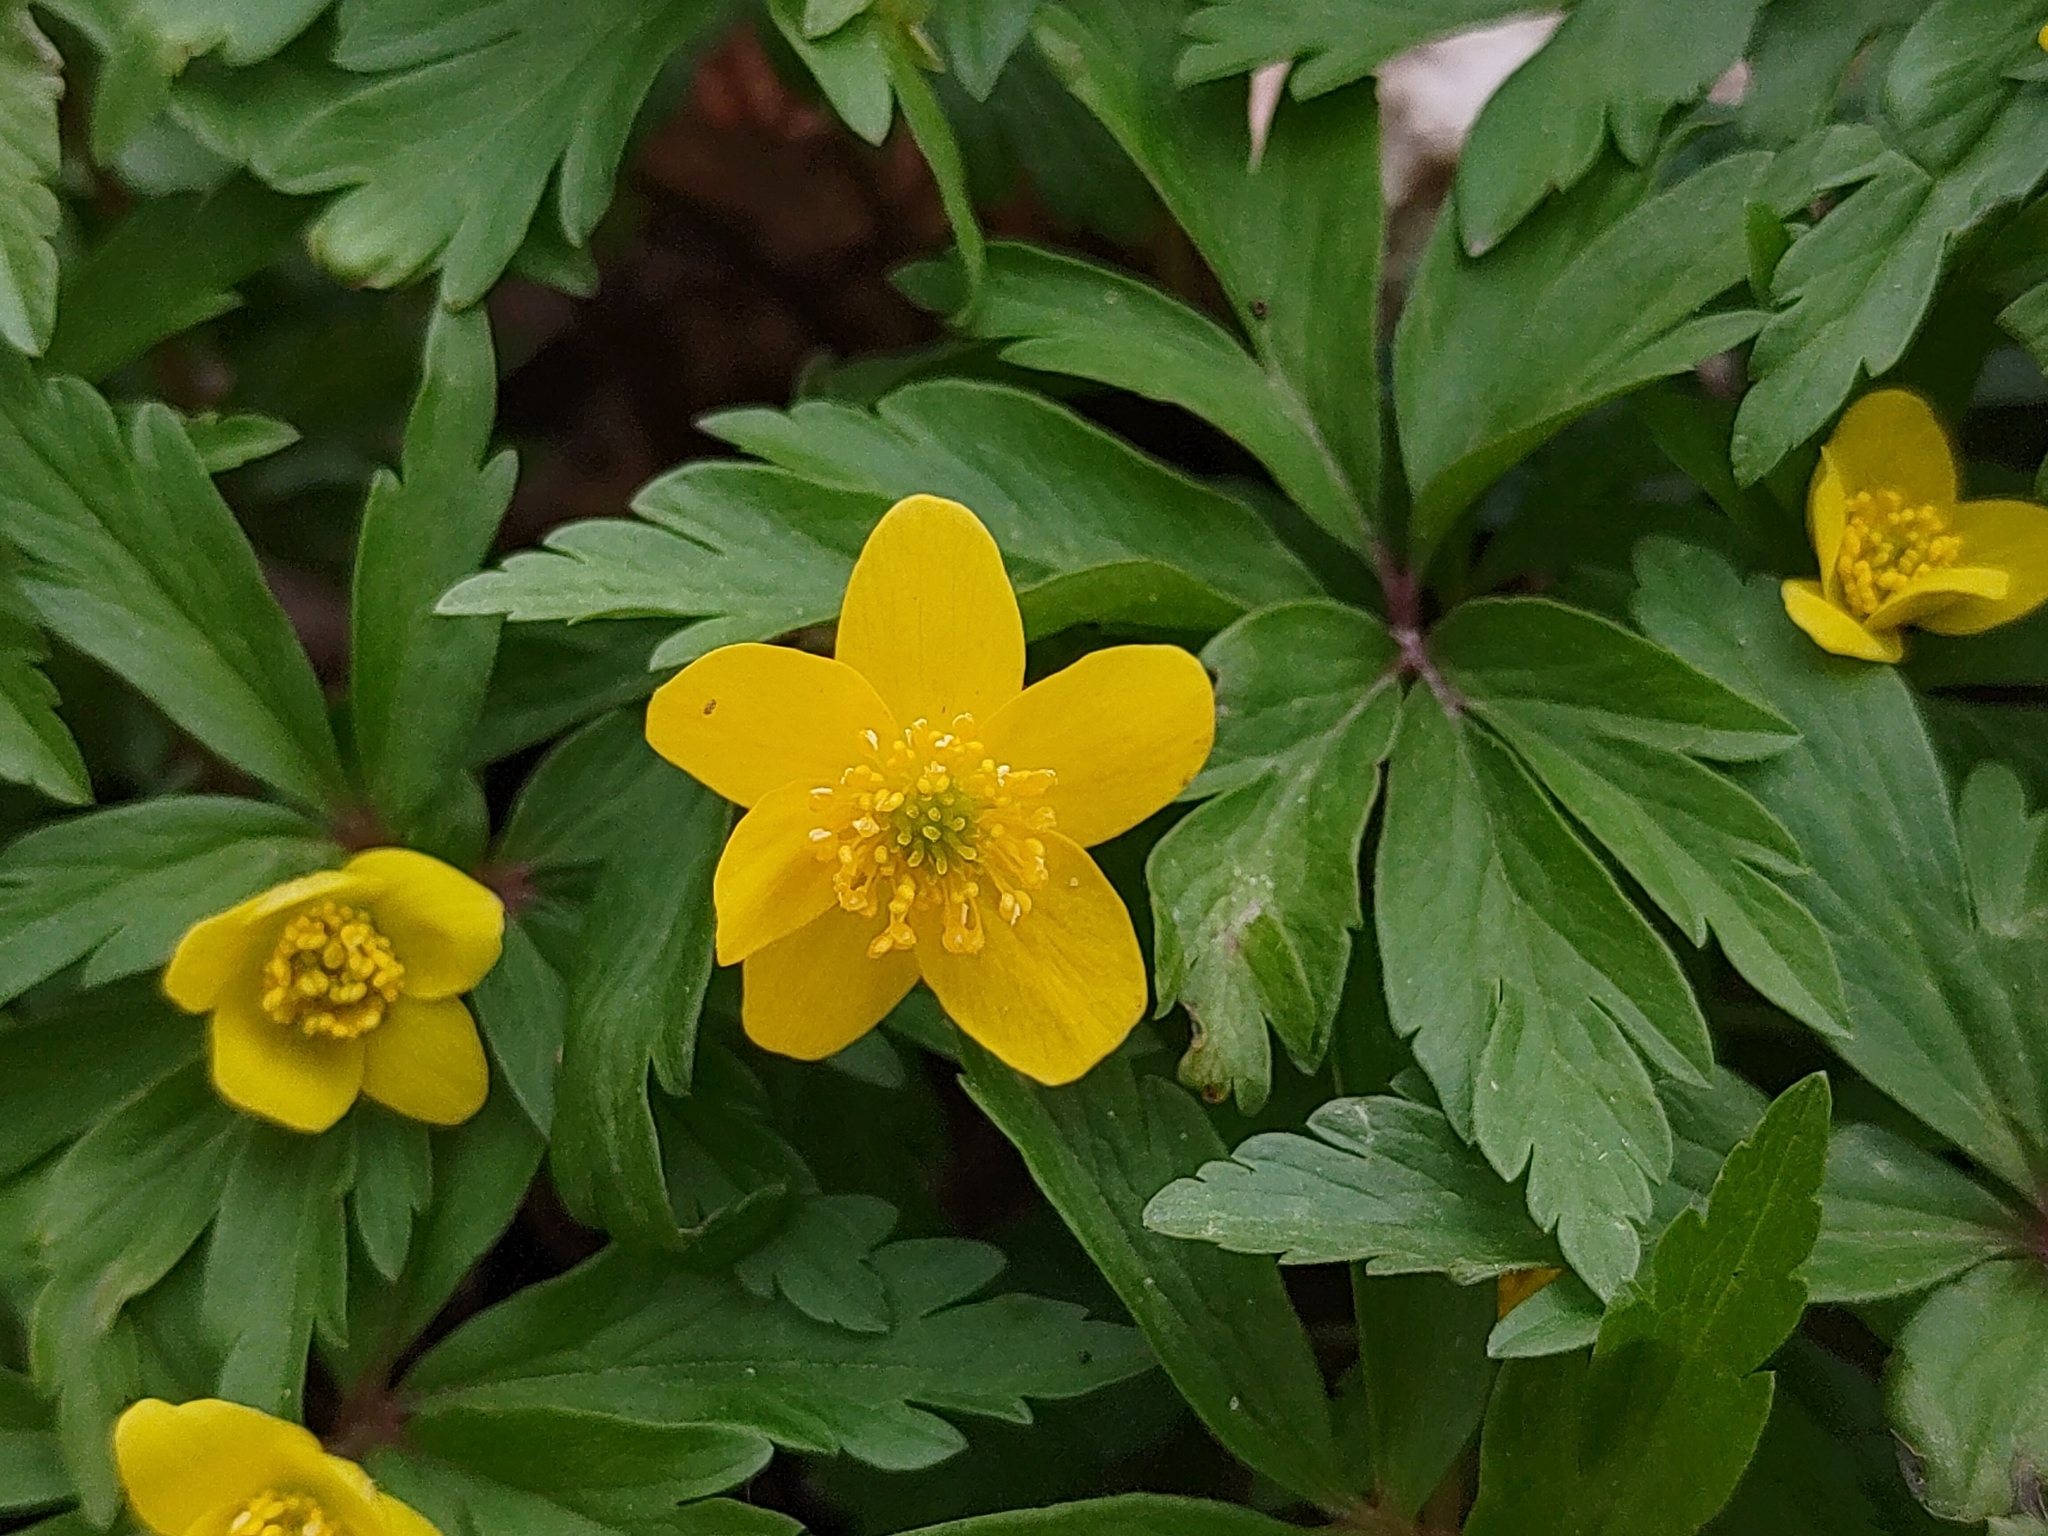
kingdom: Plantae
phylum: Tracheophyta
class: Magnoliopsida
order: Ranunculales
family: Ranunculaceae
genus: Anemone
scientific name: Anemone ranunculoides
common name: Yellow anemone
